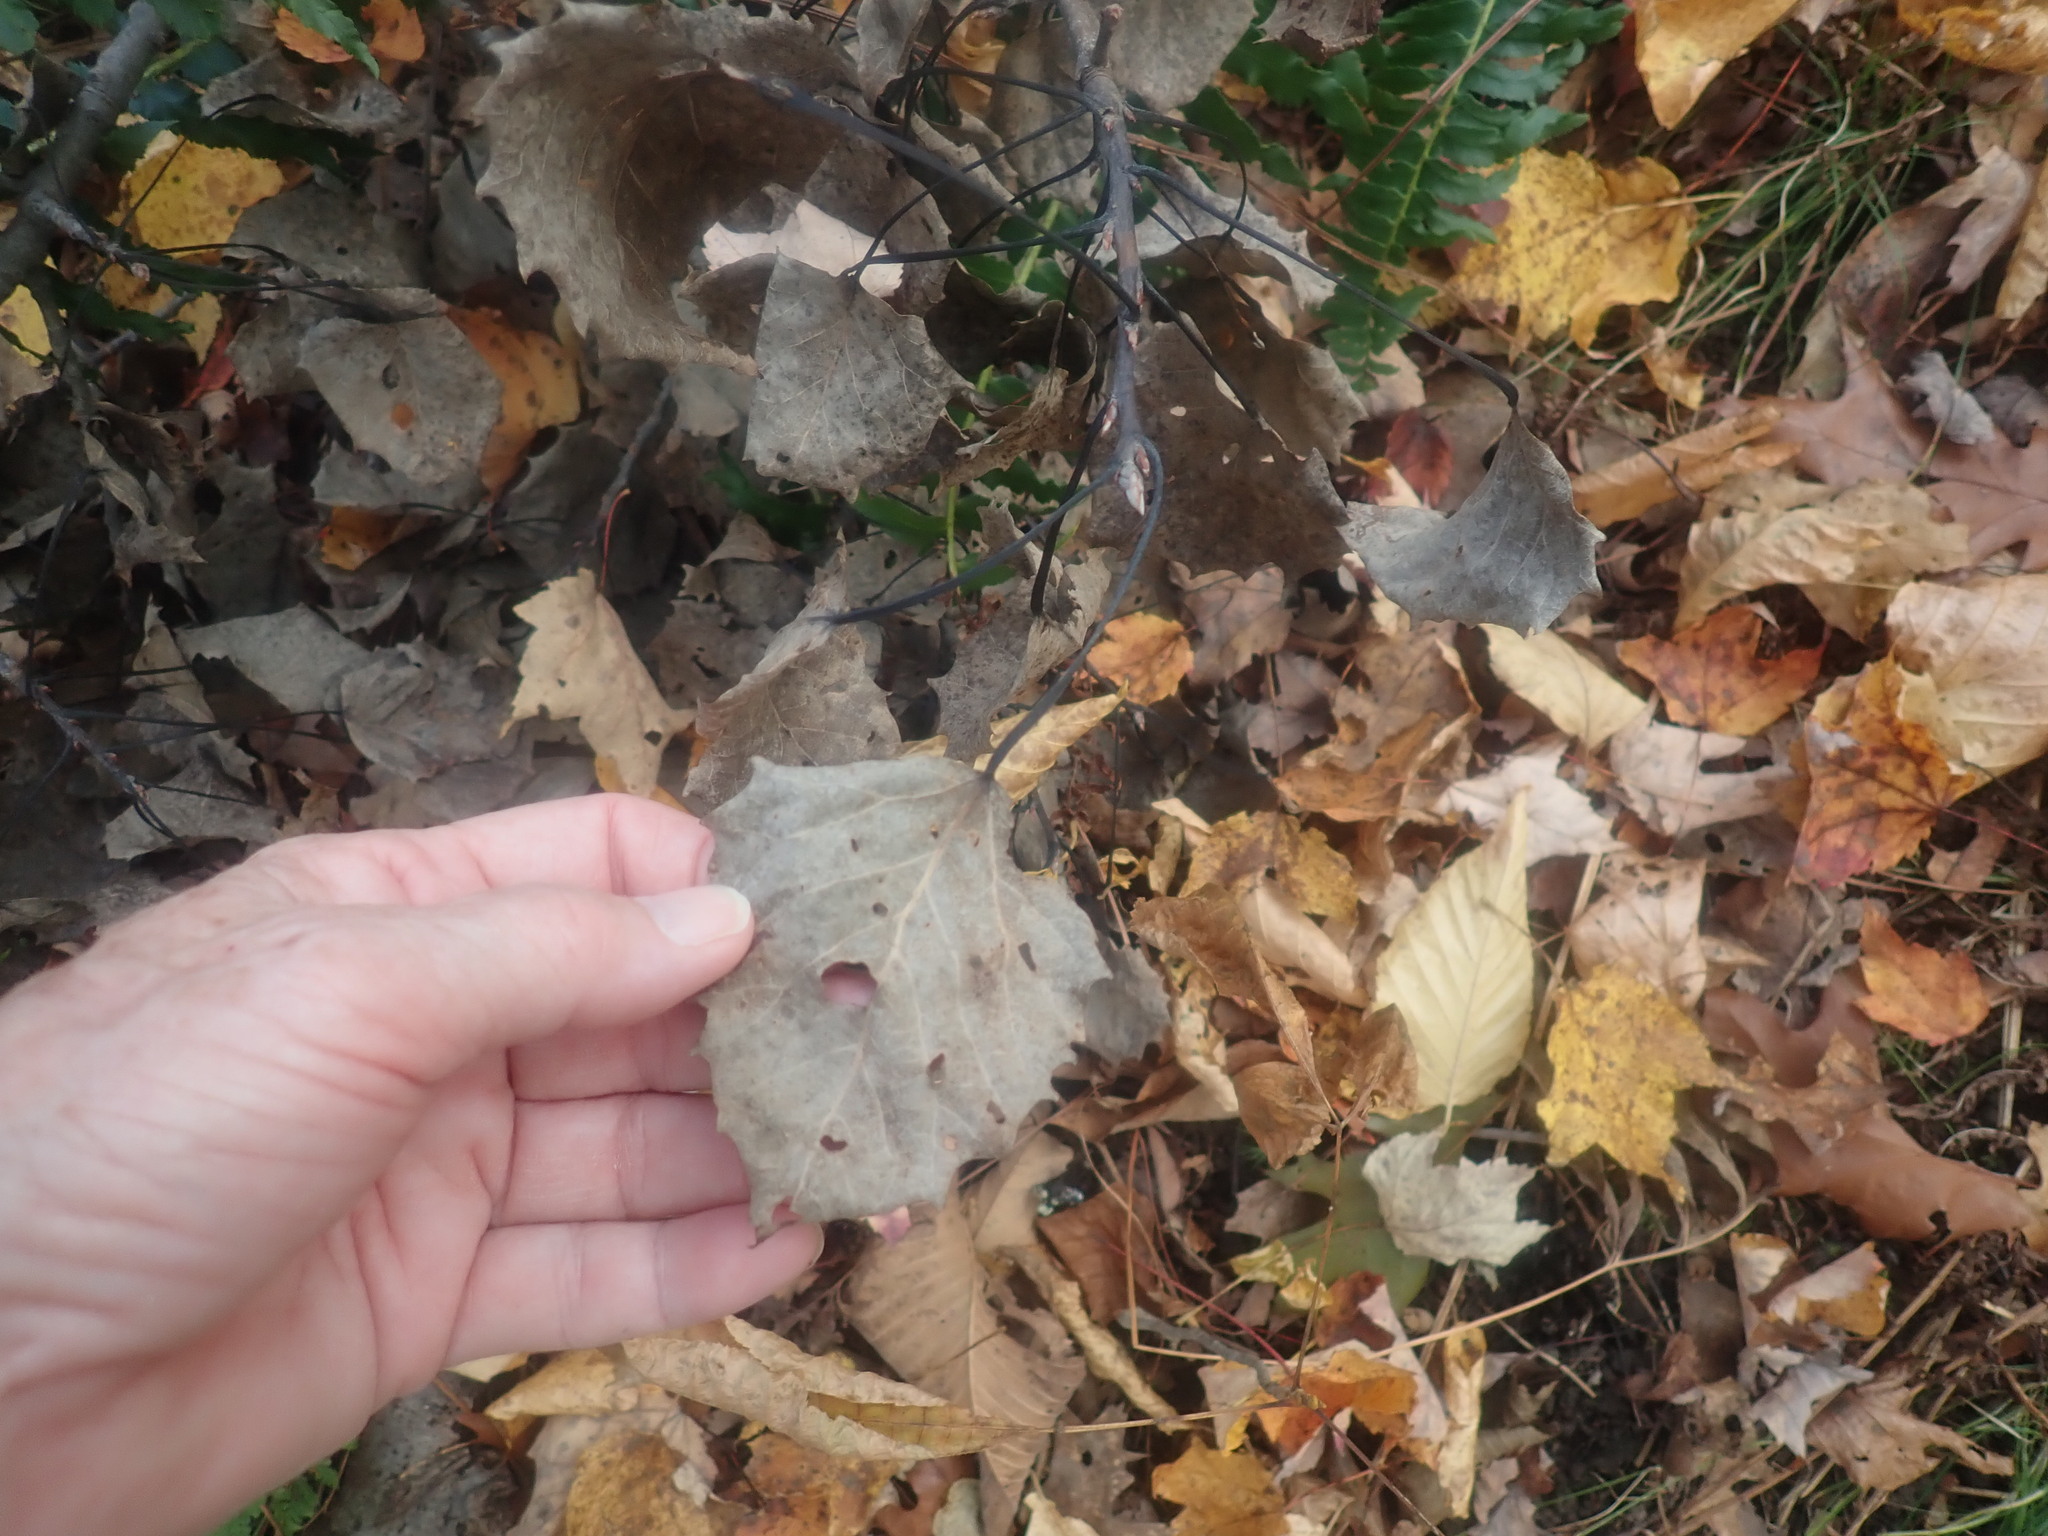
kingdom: Plantae
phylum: Tracheophyta
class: Magnoliopsida
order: Malpighiales
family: Salicaceae
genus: Populus
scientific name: Populus grandidentata
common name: Bigtooth aspen
